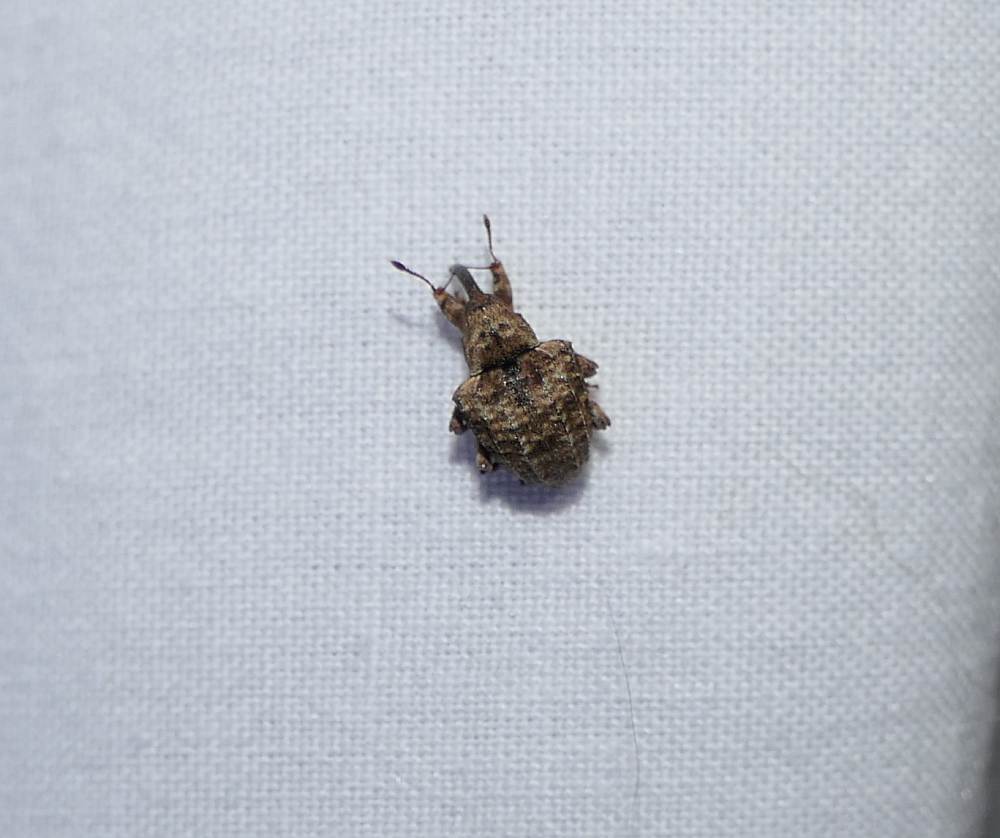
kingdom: Animalia
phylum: Arthropoda
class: Insecta
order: Coleoptera
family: Curculionidae
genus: Conotrachelus
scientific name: Conotrachelus crataegi
